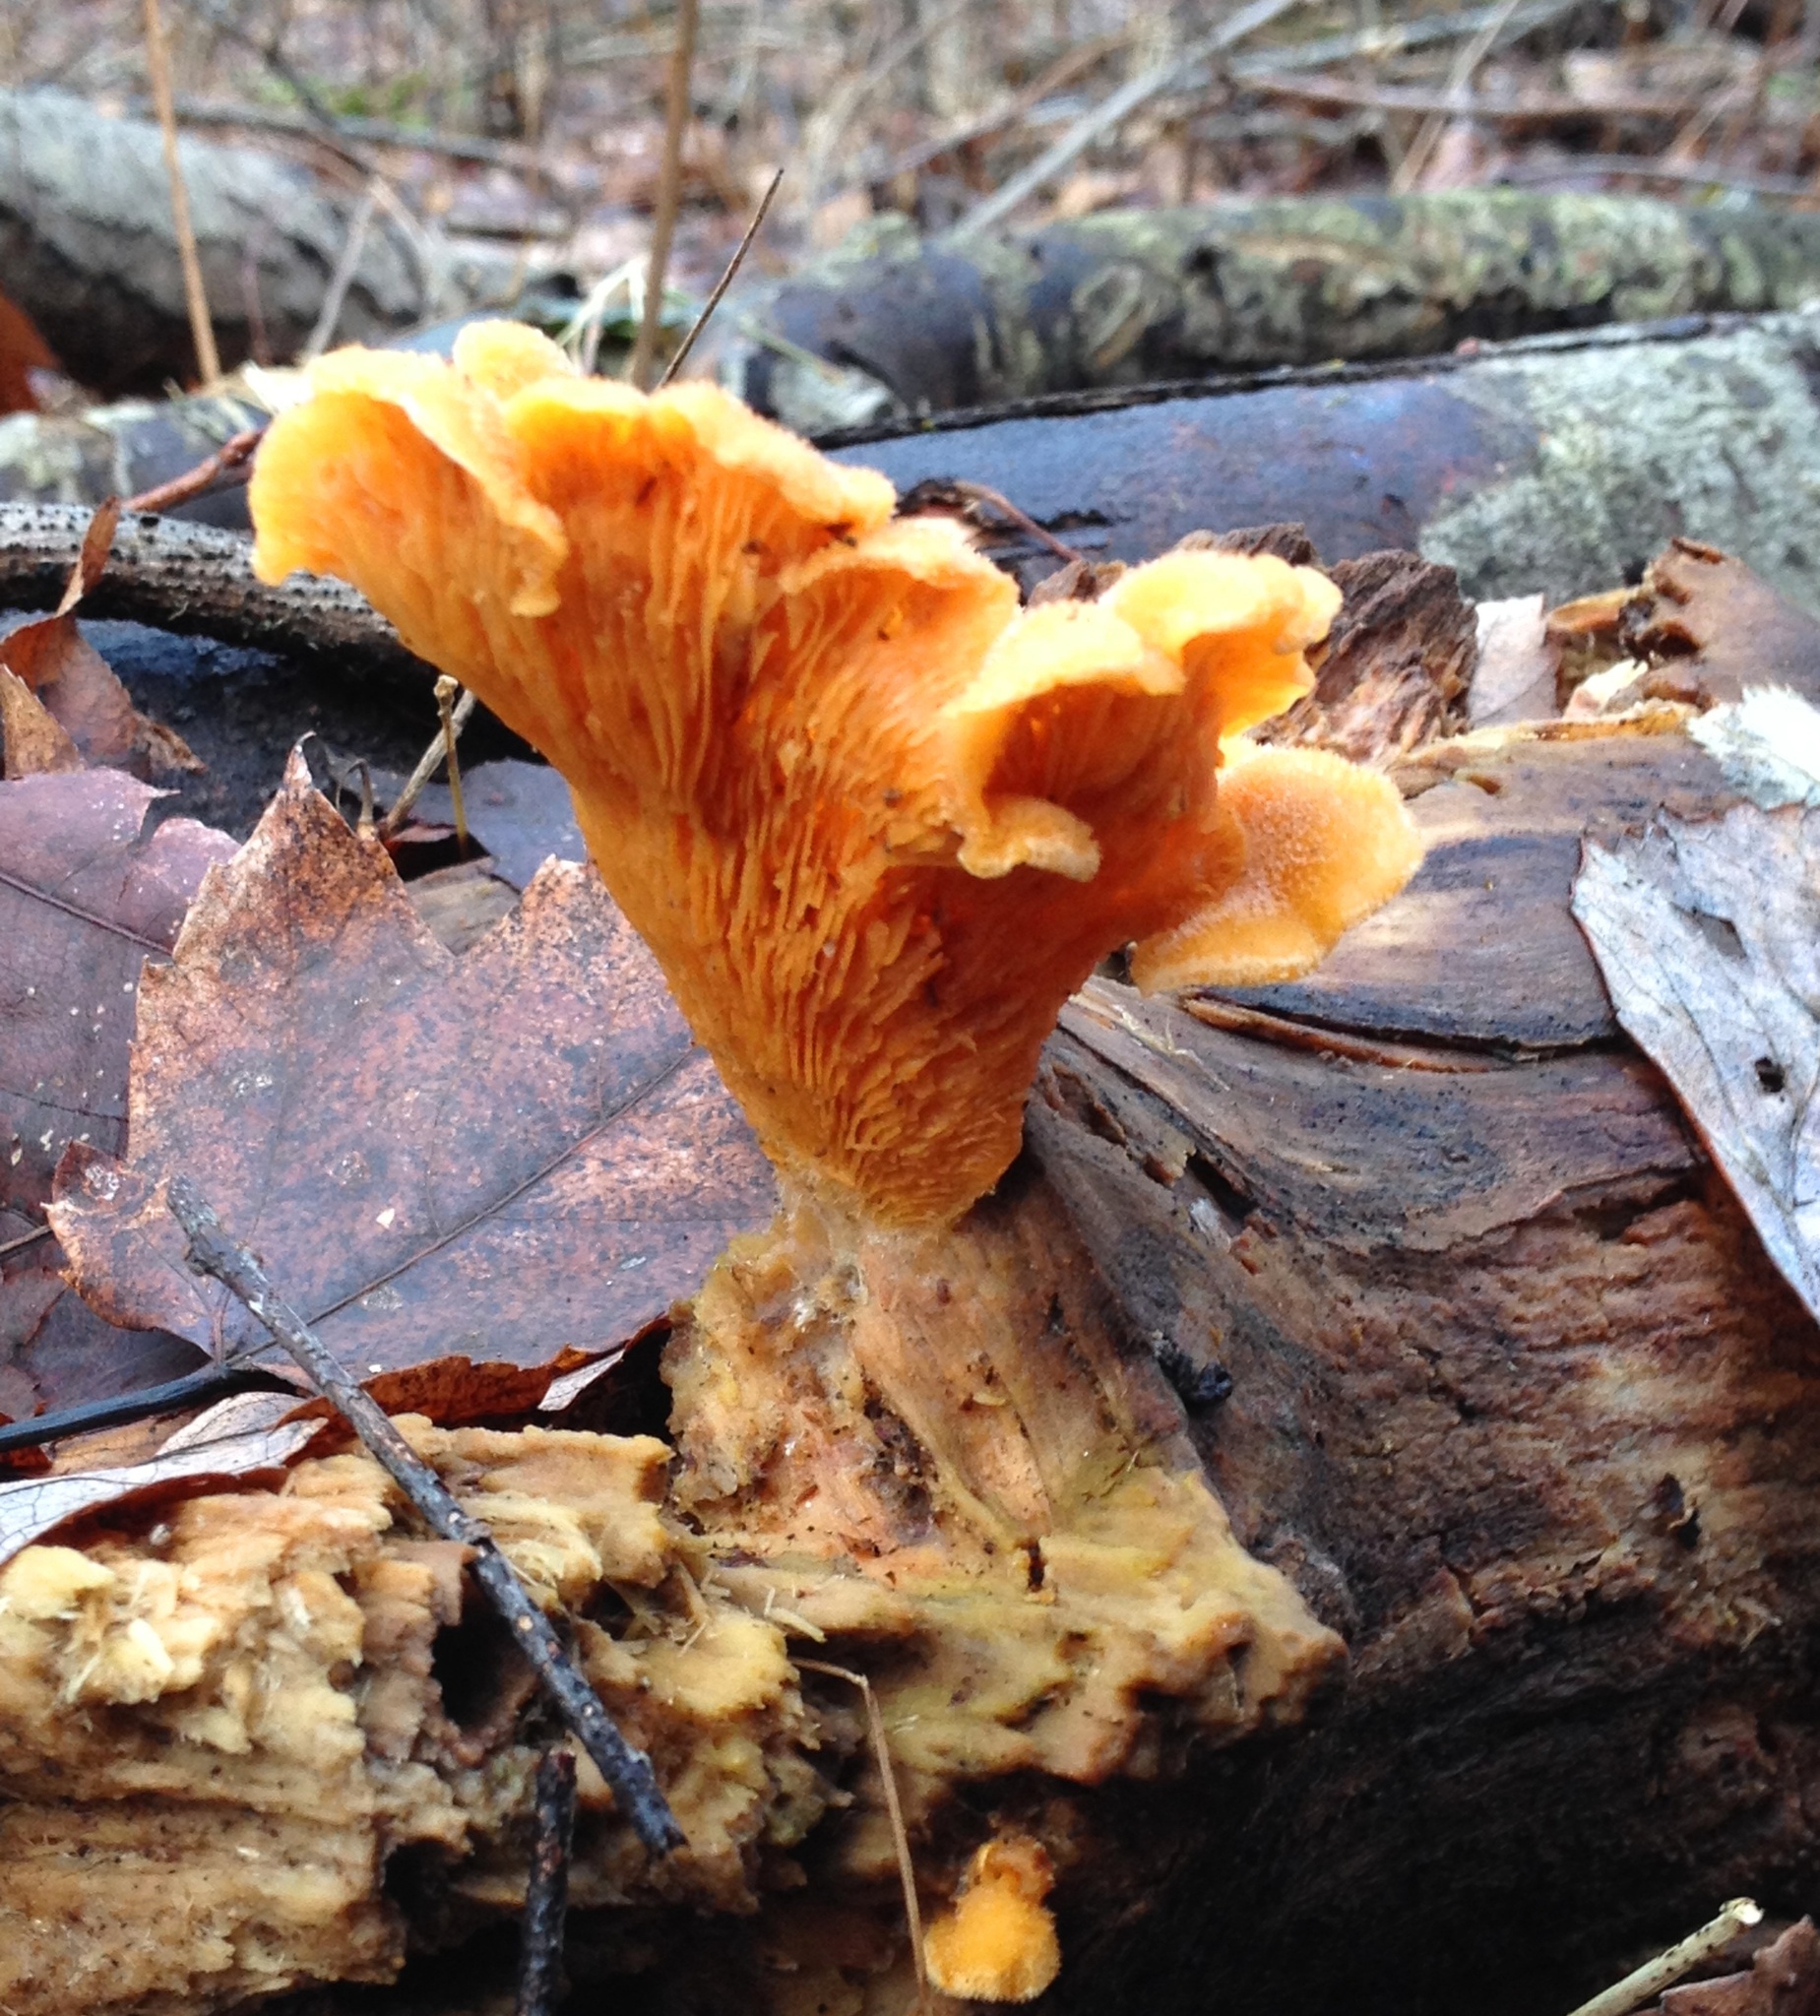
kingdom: Fungi
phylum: Basidiomycota
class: Agaricomycetes
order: Agaricales
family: Phyllotopsidaceae
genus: Phyllotopsis
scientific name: Phyllotopsis nidulans
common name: Orange mock oyster
